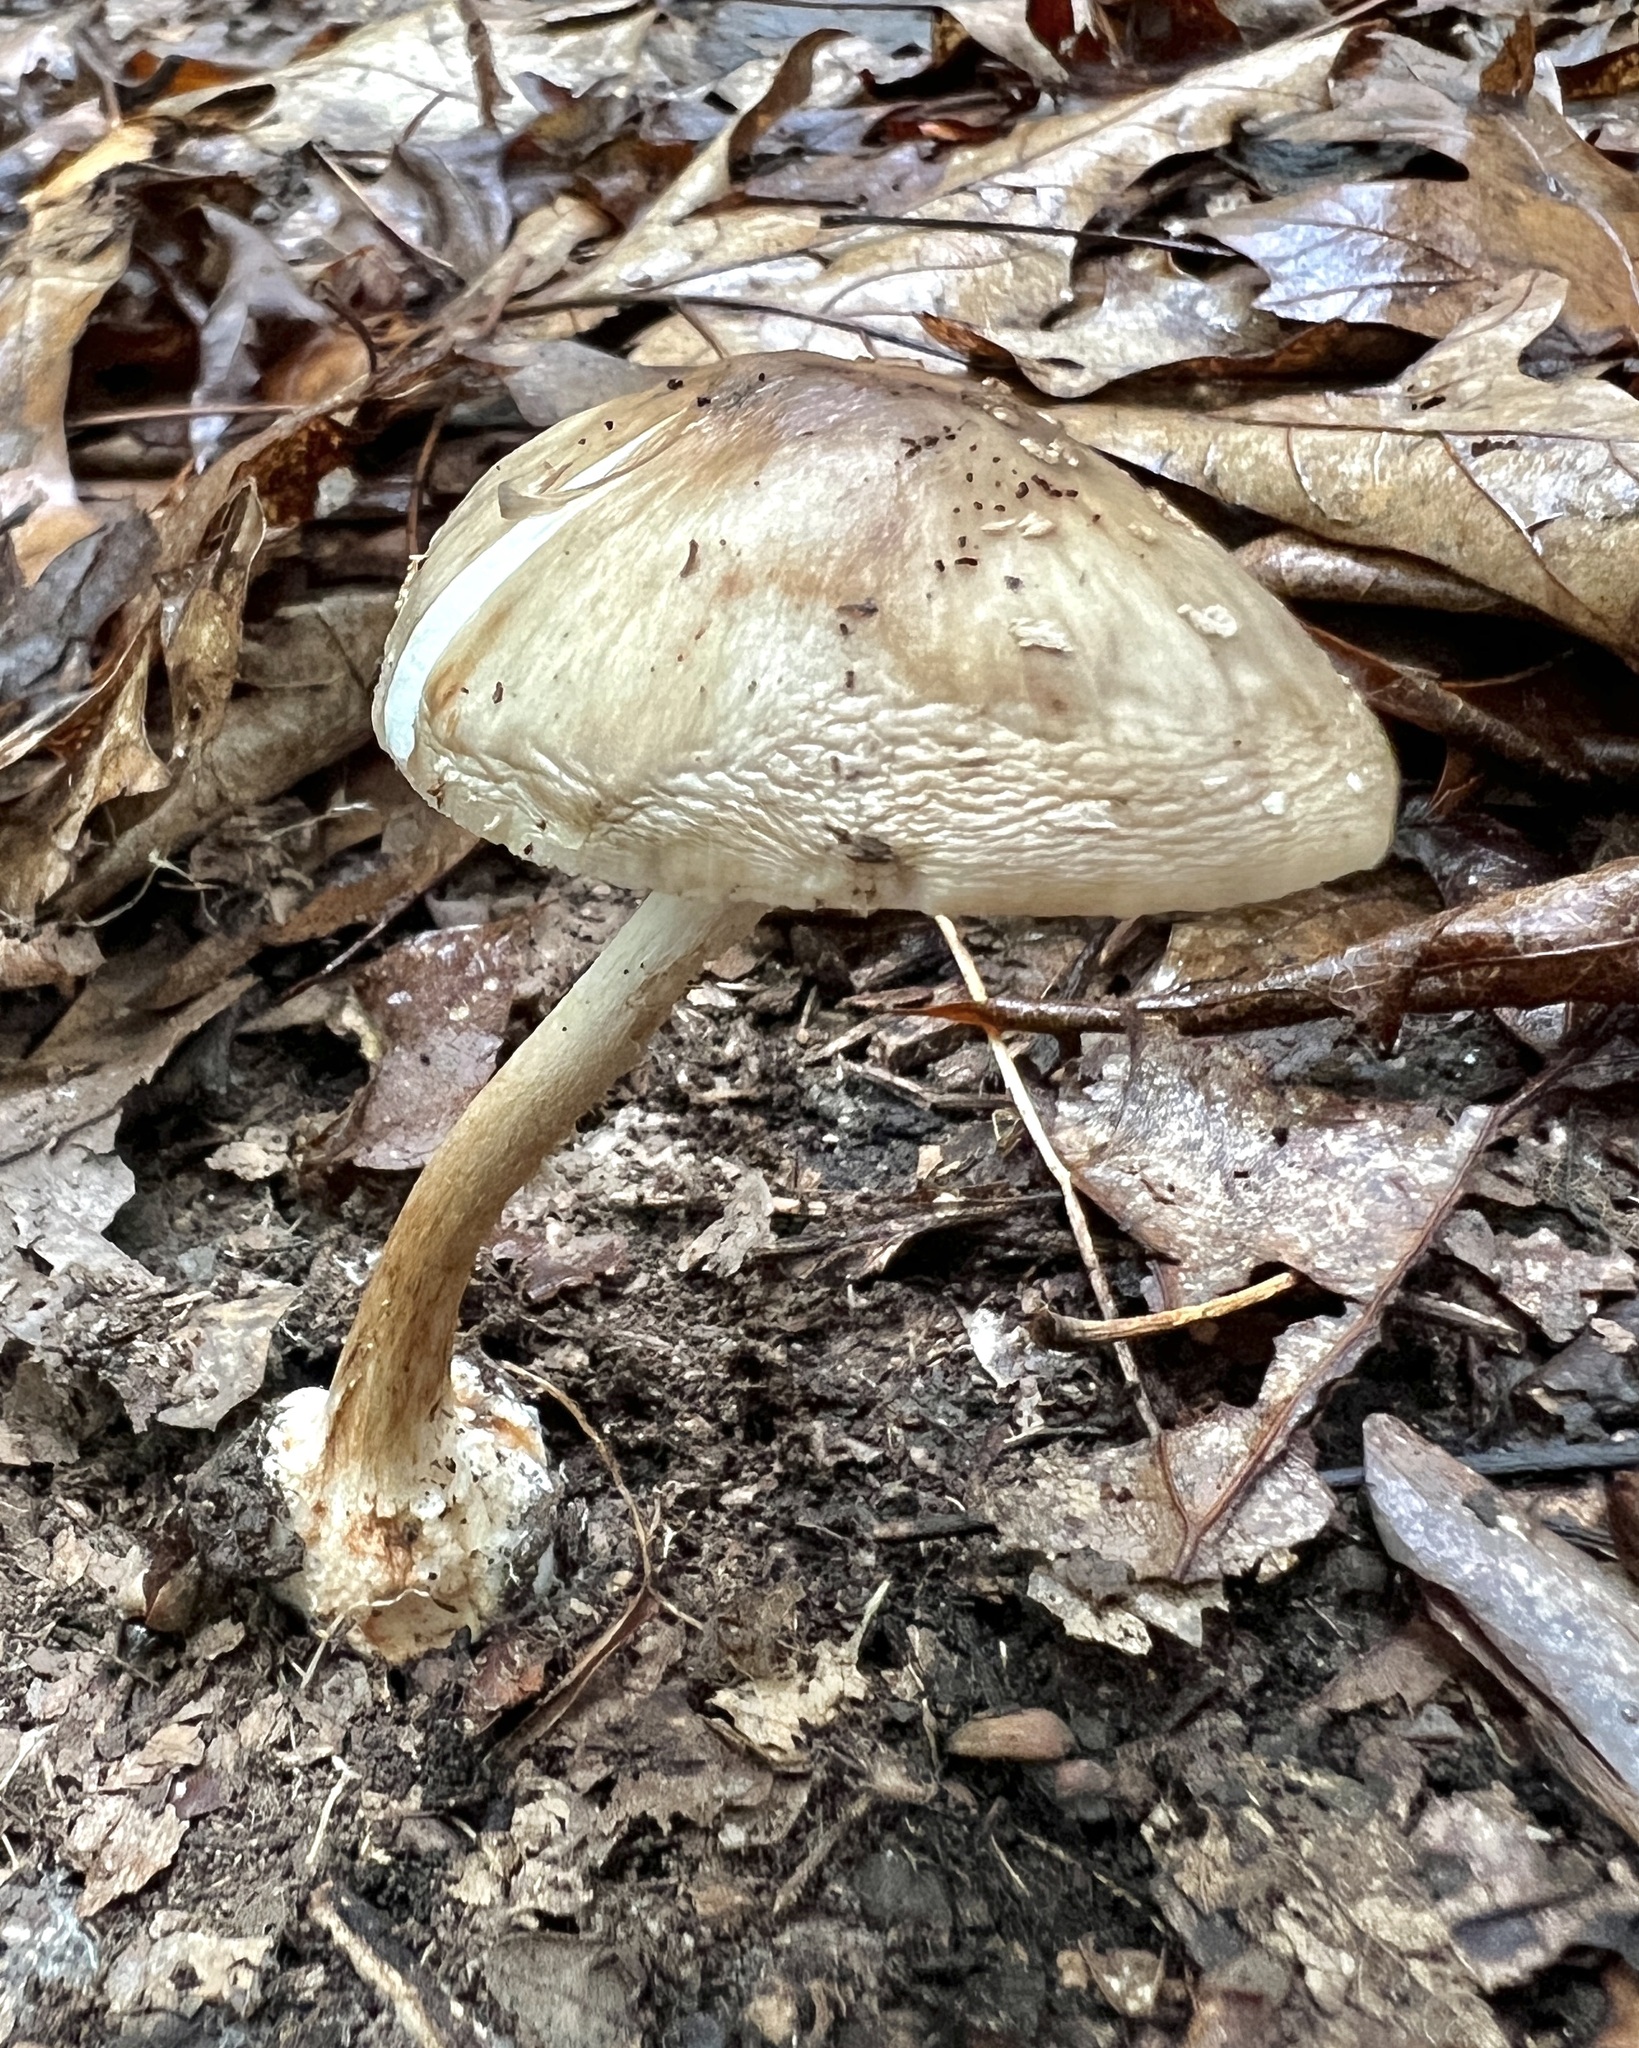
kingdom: Fungi
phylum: Basidiomycota
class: Agaricomycetes
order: Agaricales
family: Amanitaceae
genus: Amanita
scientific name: Amanita brunnescens
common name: Brown american star-footed amanita
